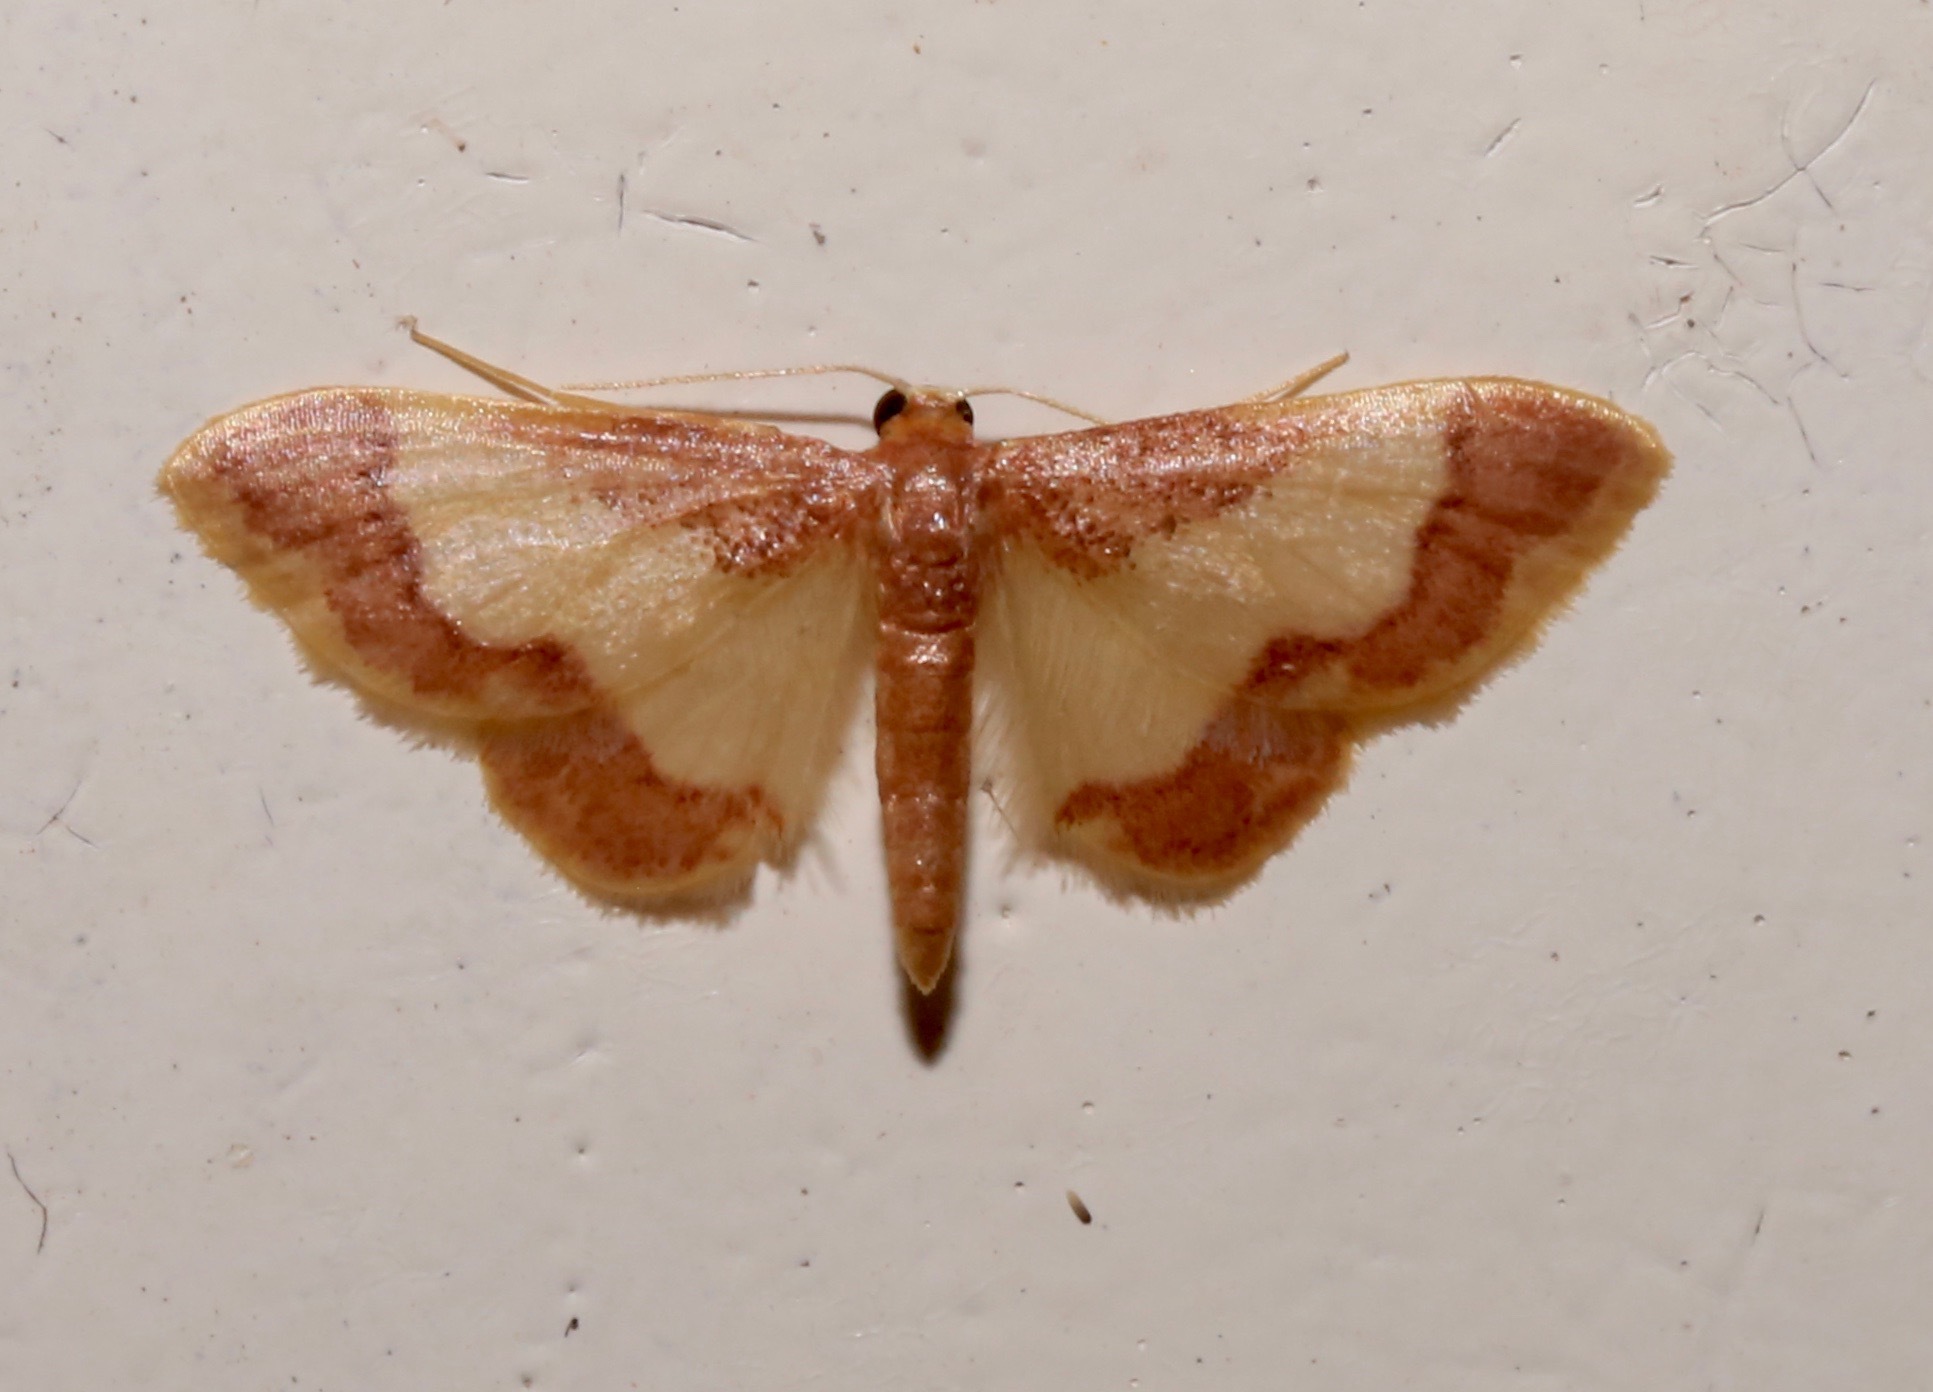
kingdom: Animalia
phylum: Arthropoda
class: Insecta
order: Lepidoptera
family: Geometridae
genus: Idaea
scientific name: Idaea basinta
